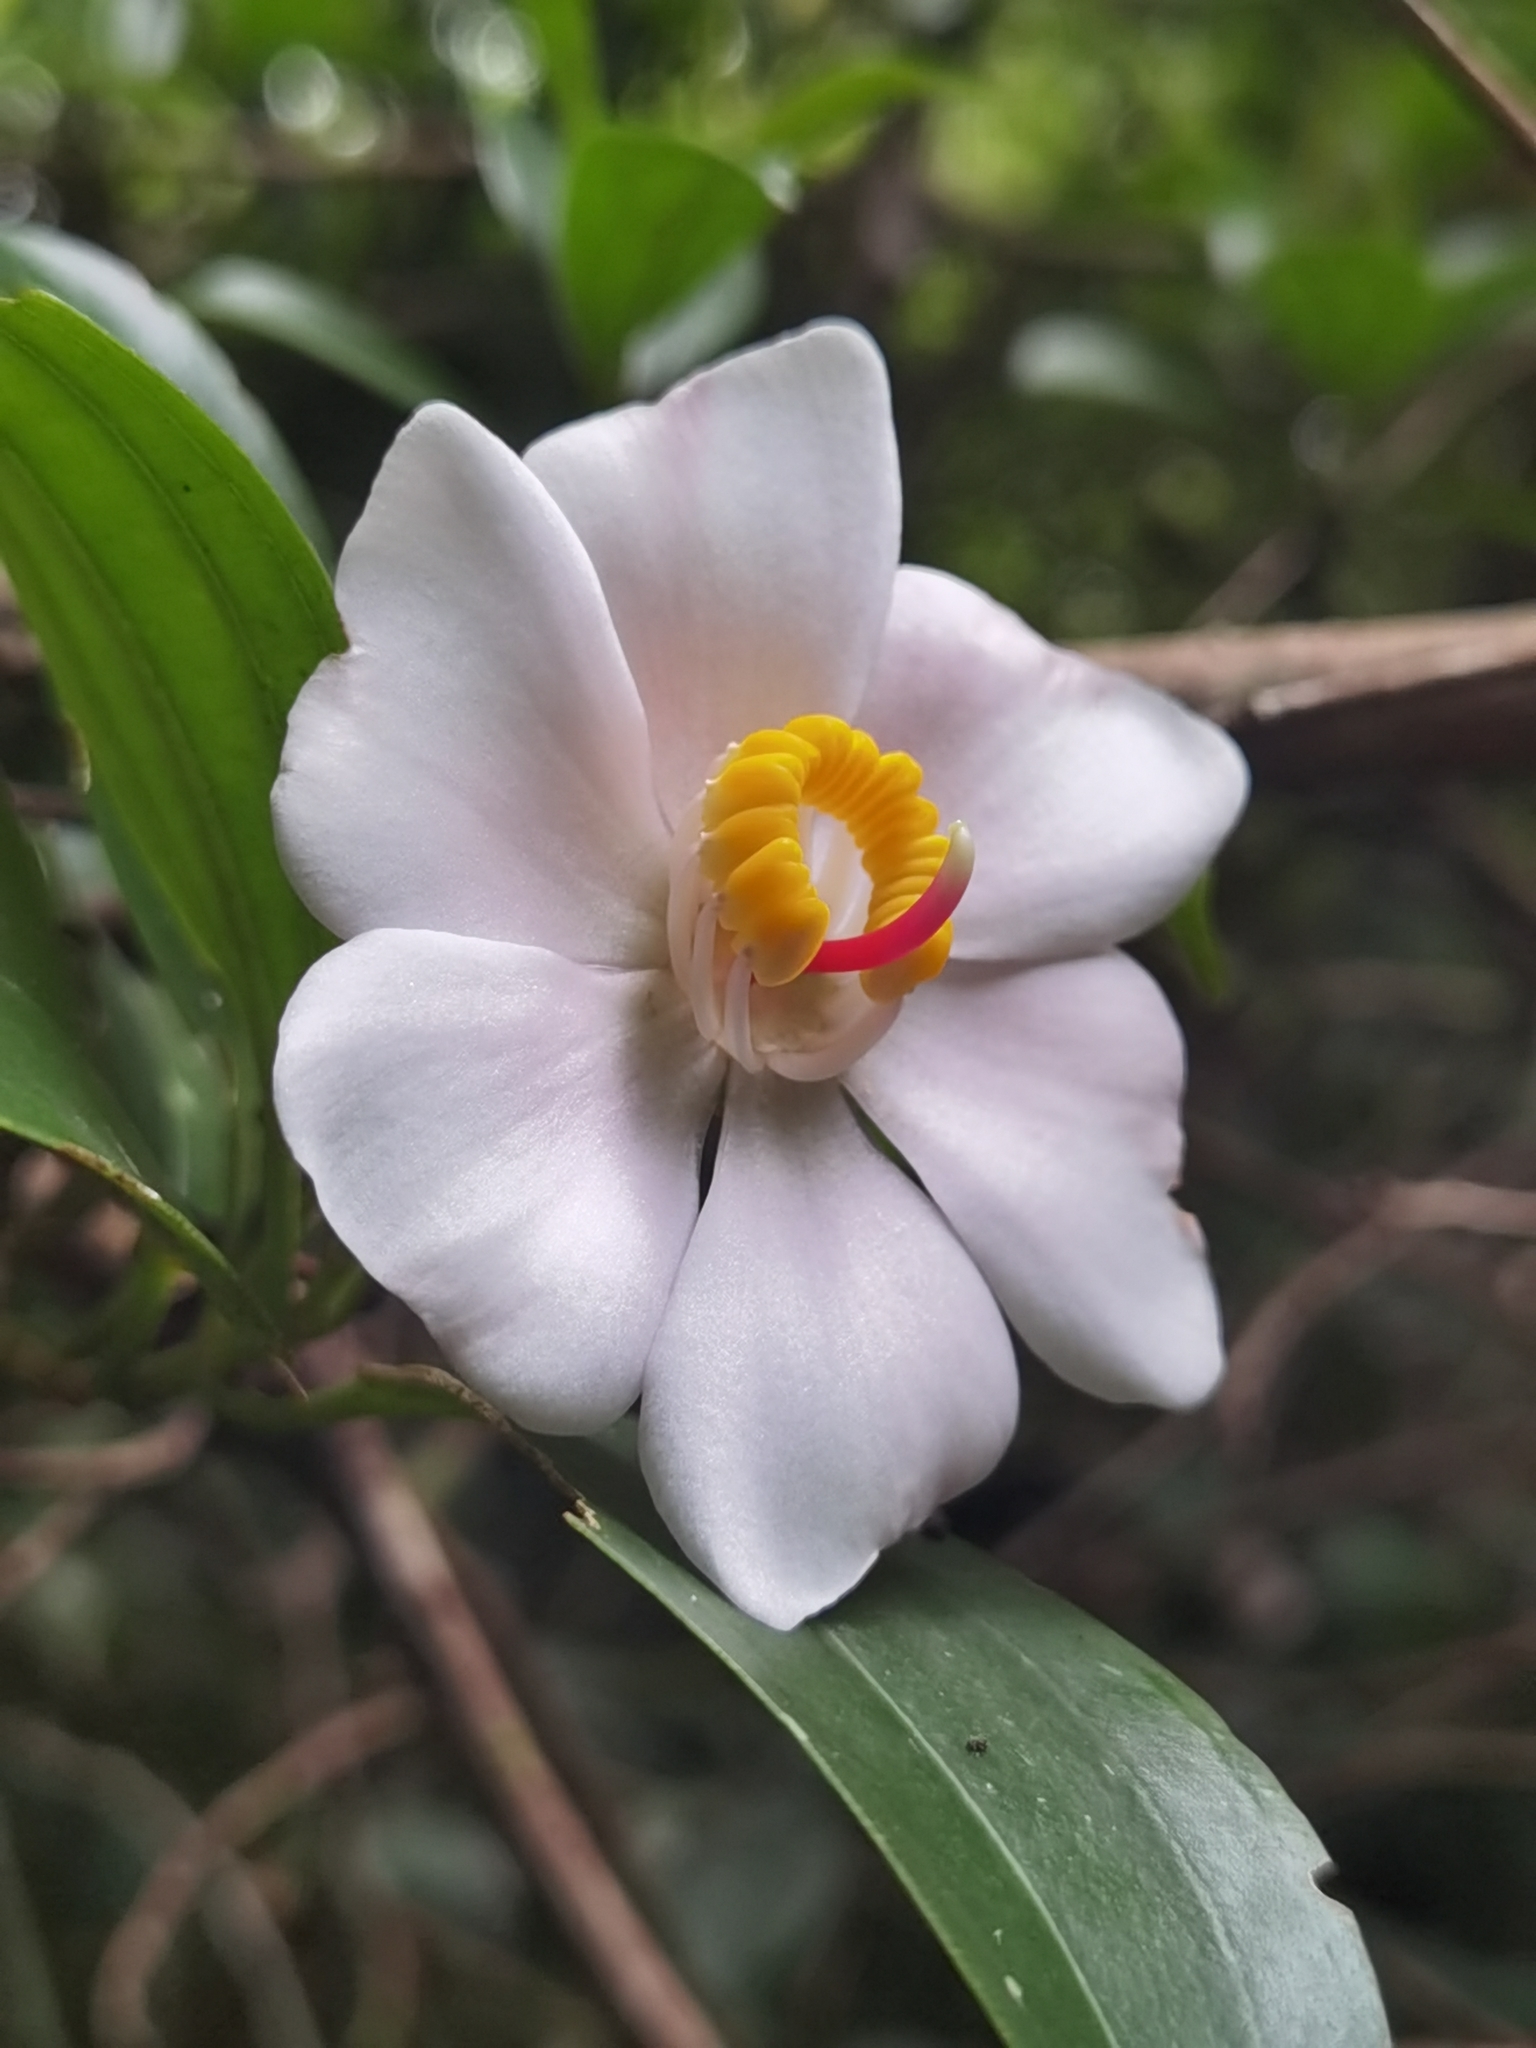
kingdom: Plantae
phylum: Tracheophyta
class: Magnoliopsida
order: Myrtales
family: Melastomataceae
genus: Blakea
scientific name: Blakea gracilis
